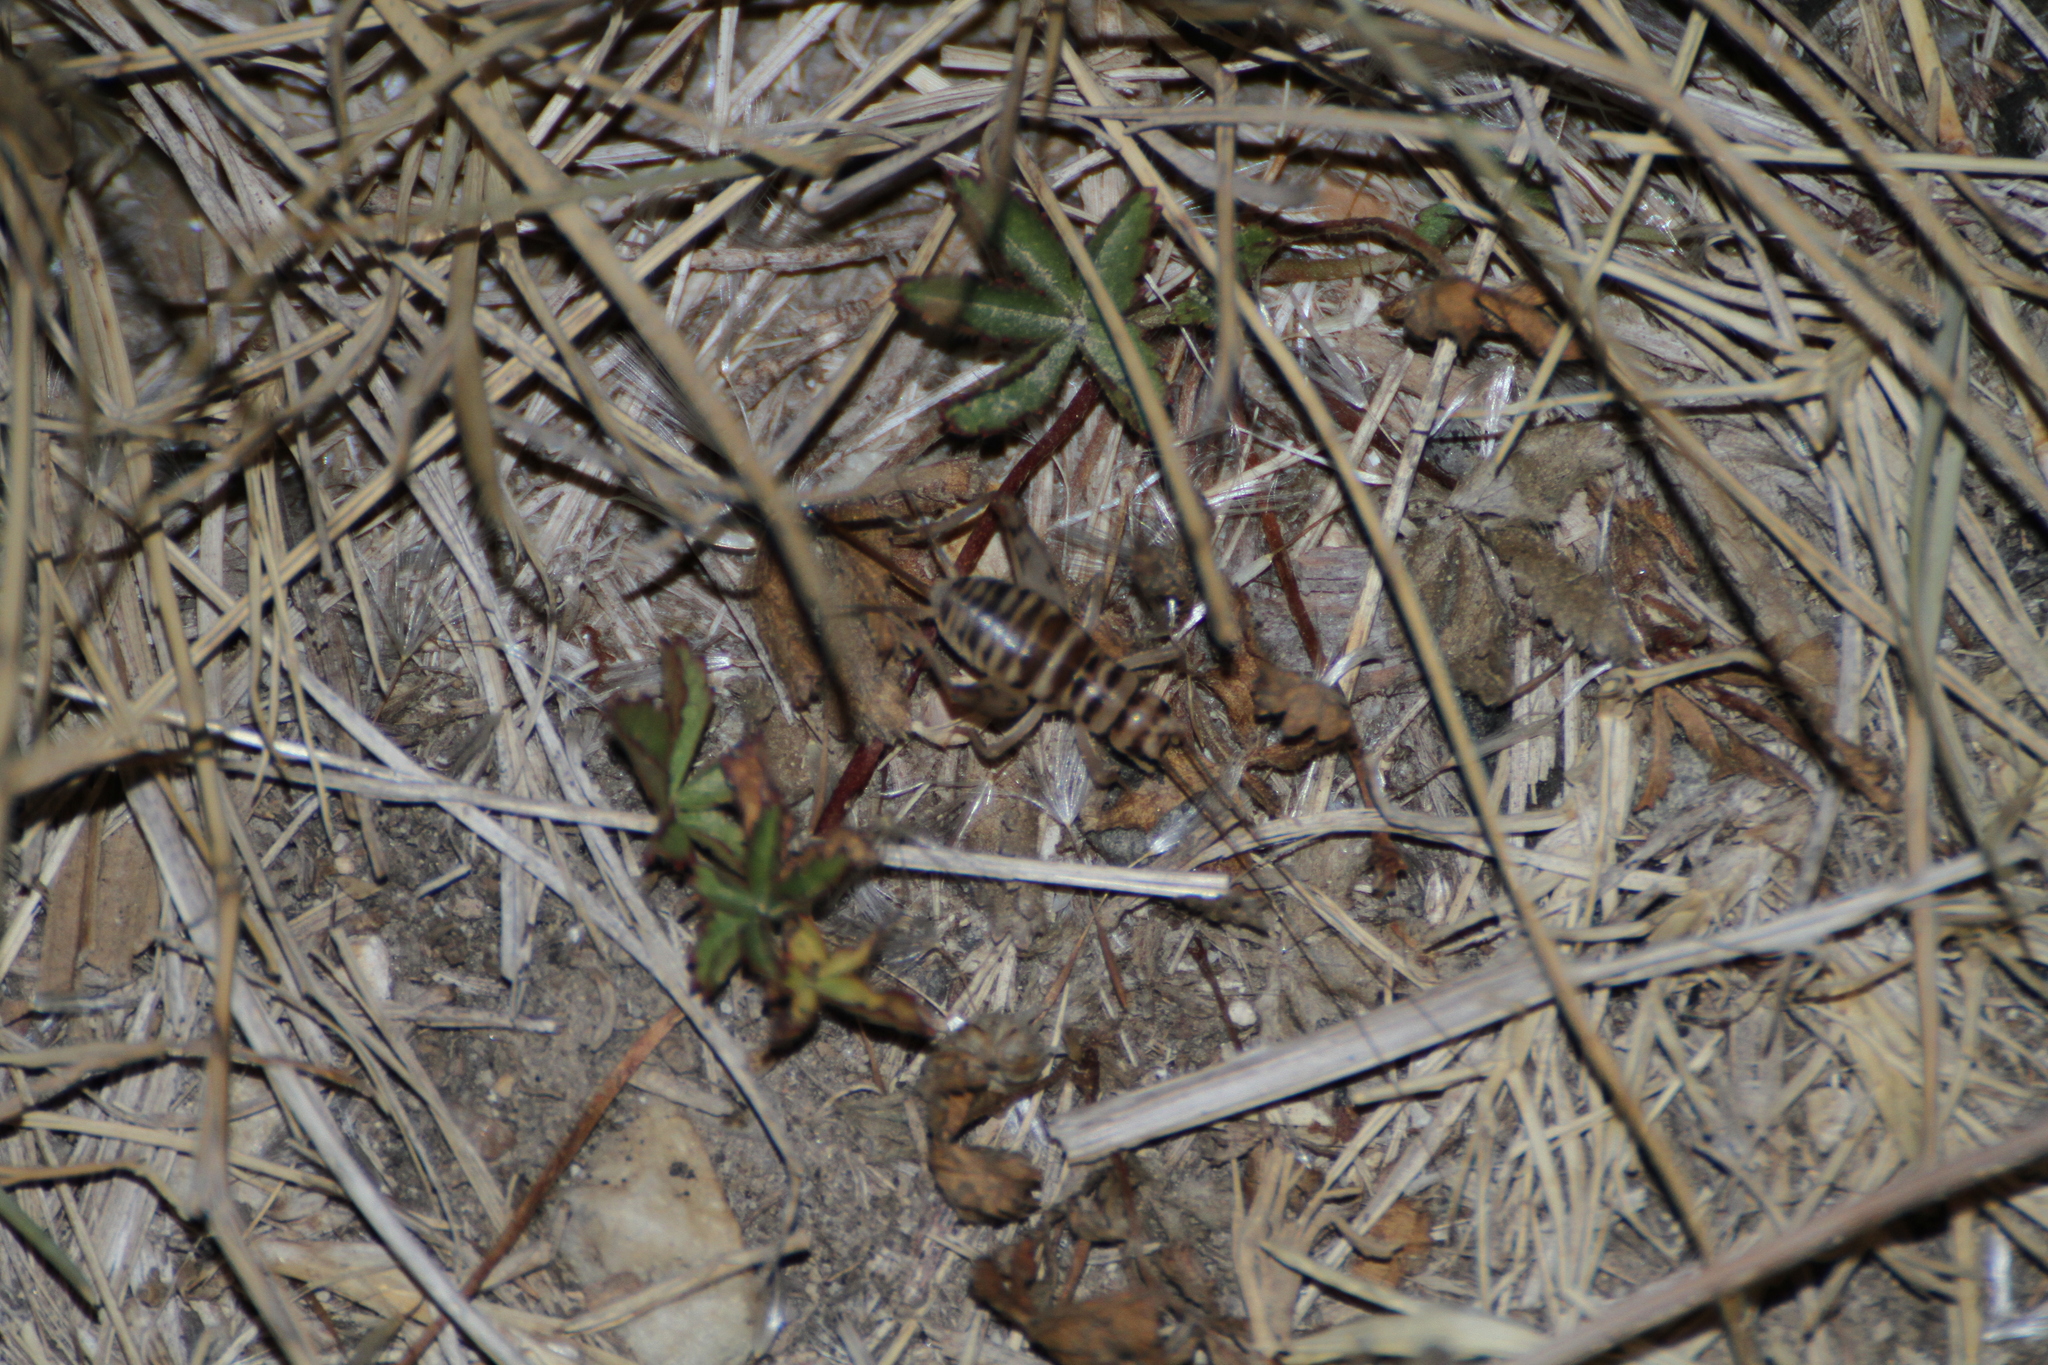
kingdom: Animalia
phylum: Arthropoda
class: Insecta
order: Orthoptera
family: Gryllidae
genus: Gryllomorpha
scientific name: Gryllomorpha dalmatina
